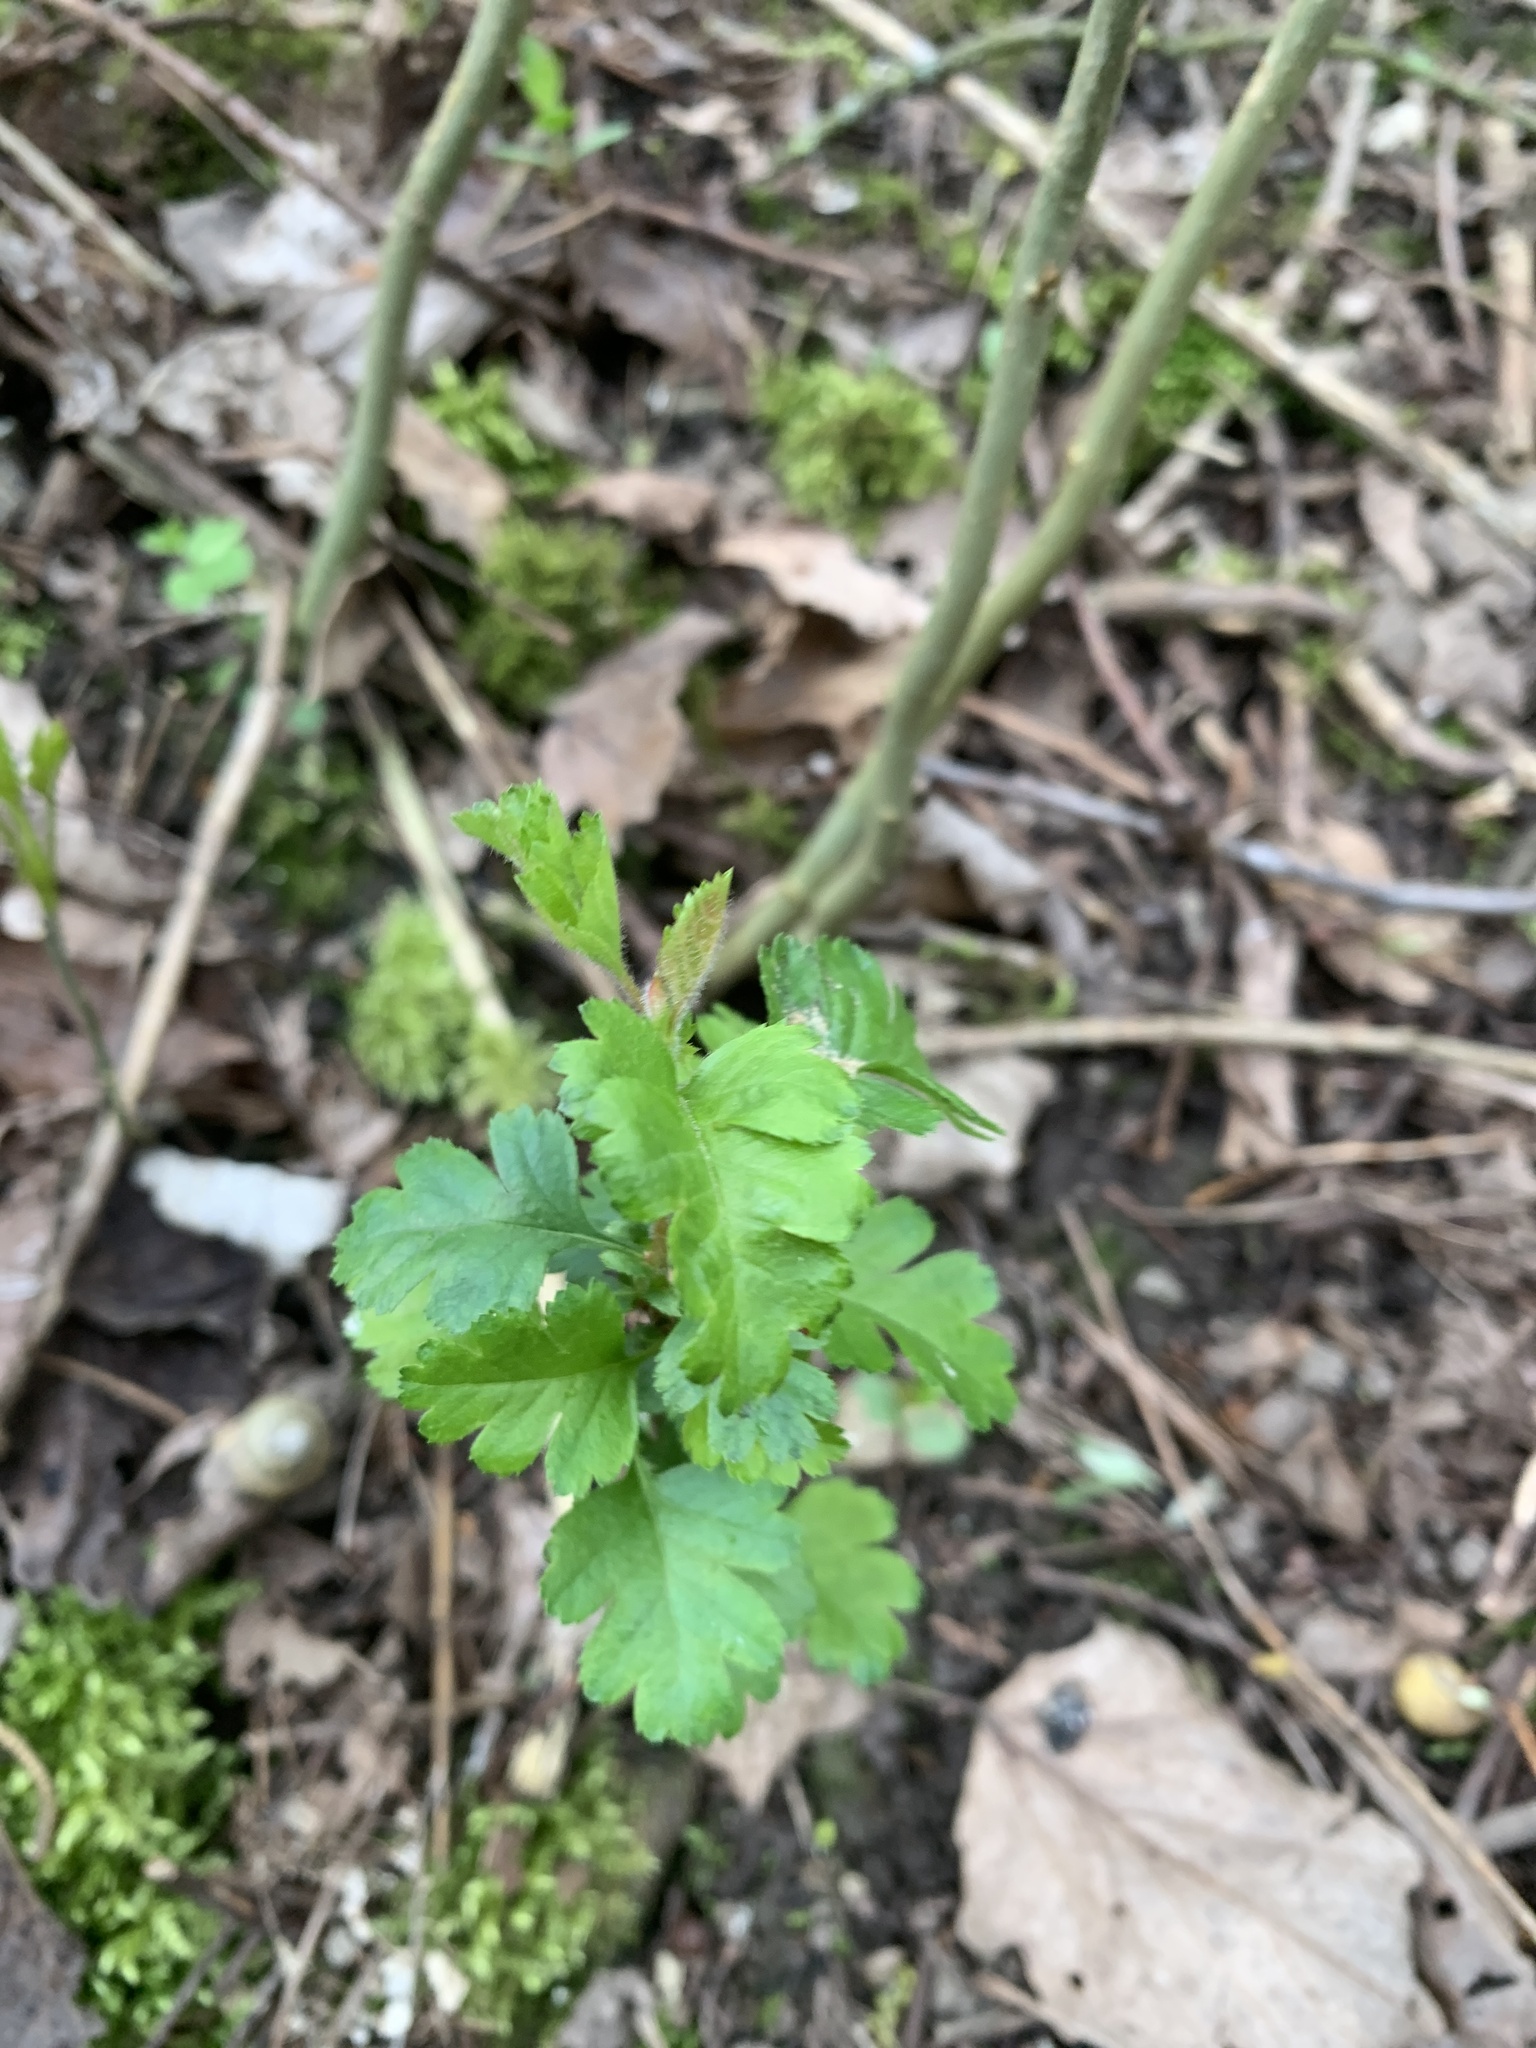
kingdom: Plantae
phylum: Tracheophyta
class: Magnoliopsida
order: Rosales
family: Rosaceae
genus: Crataegus
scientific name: Crataegus monogyna
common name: Hawthorn
